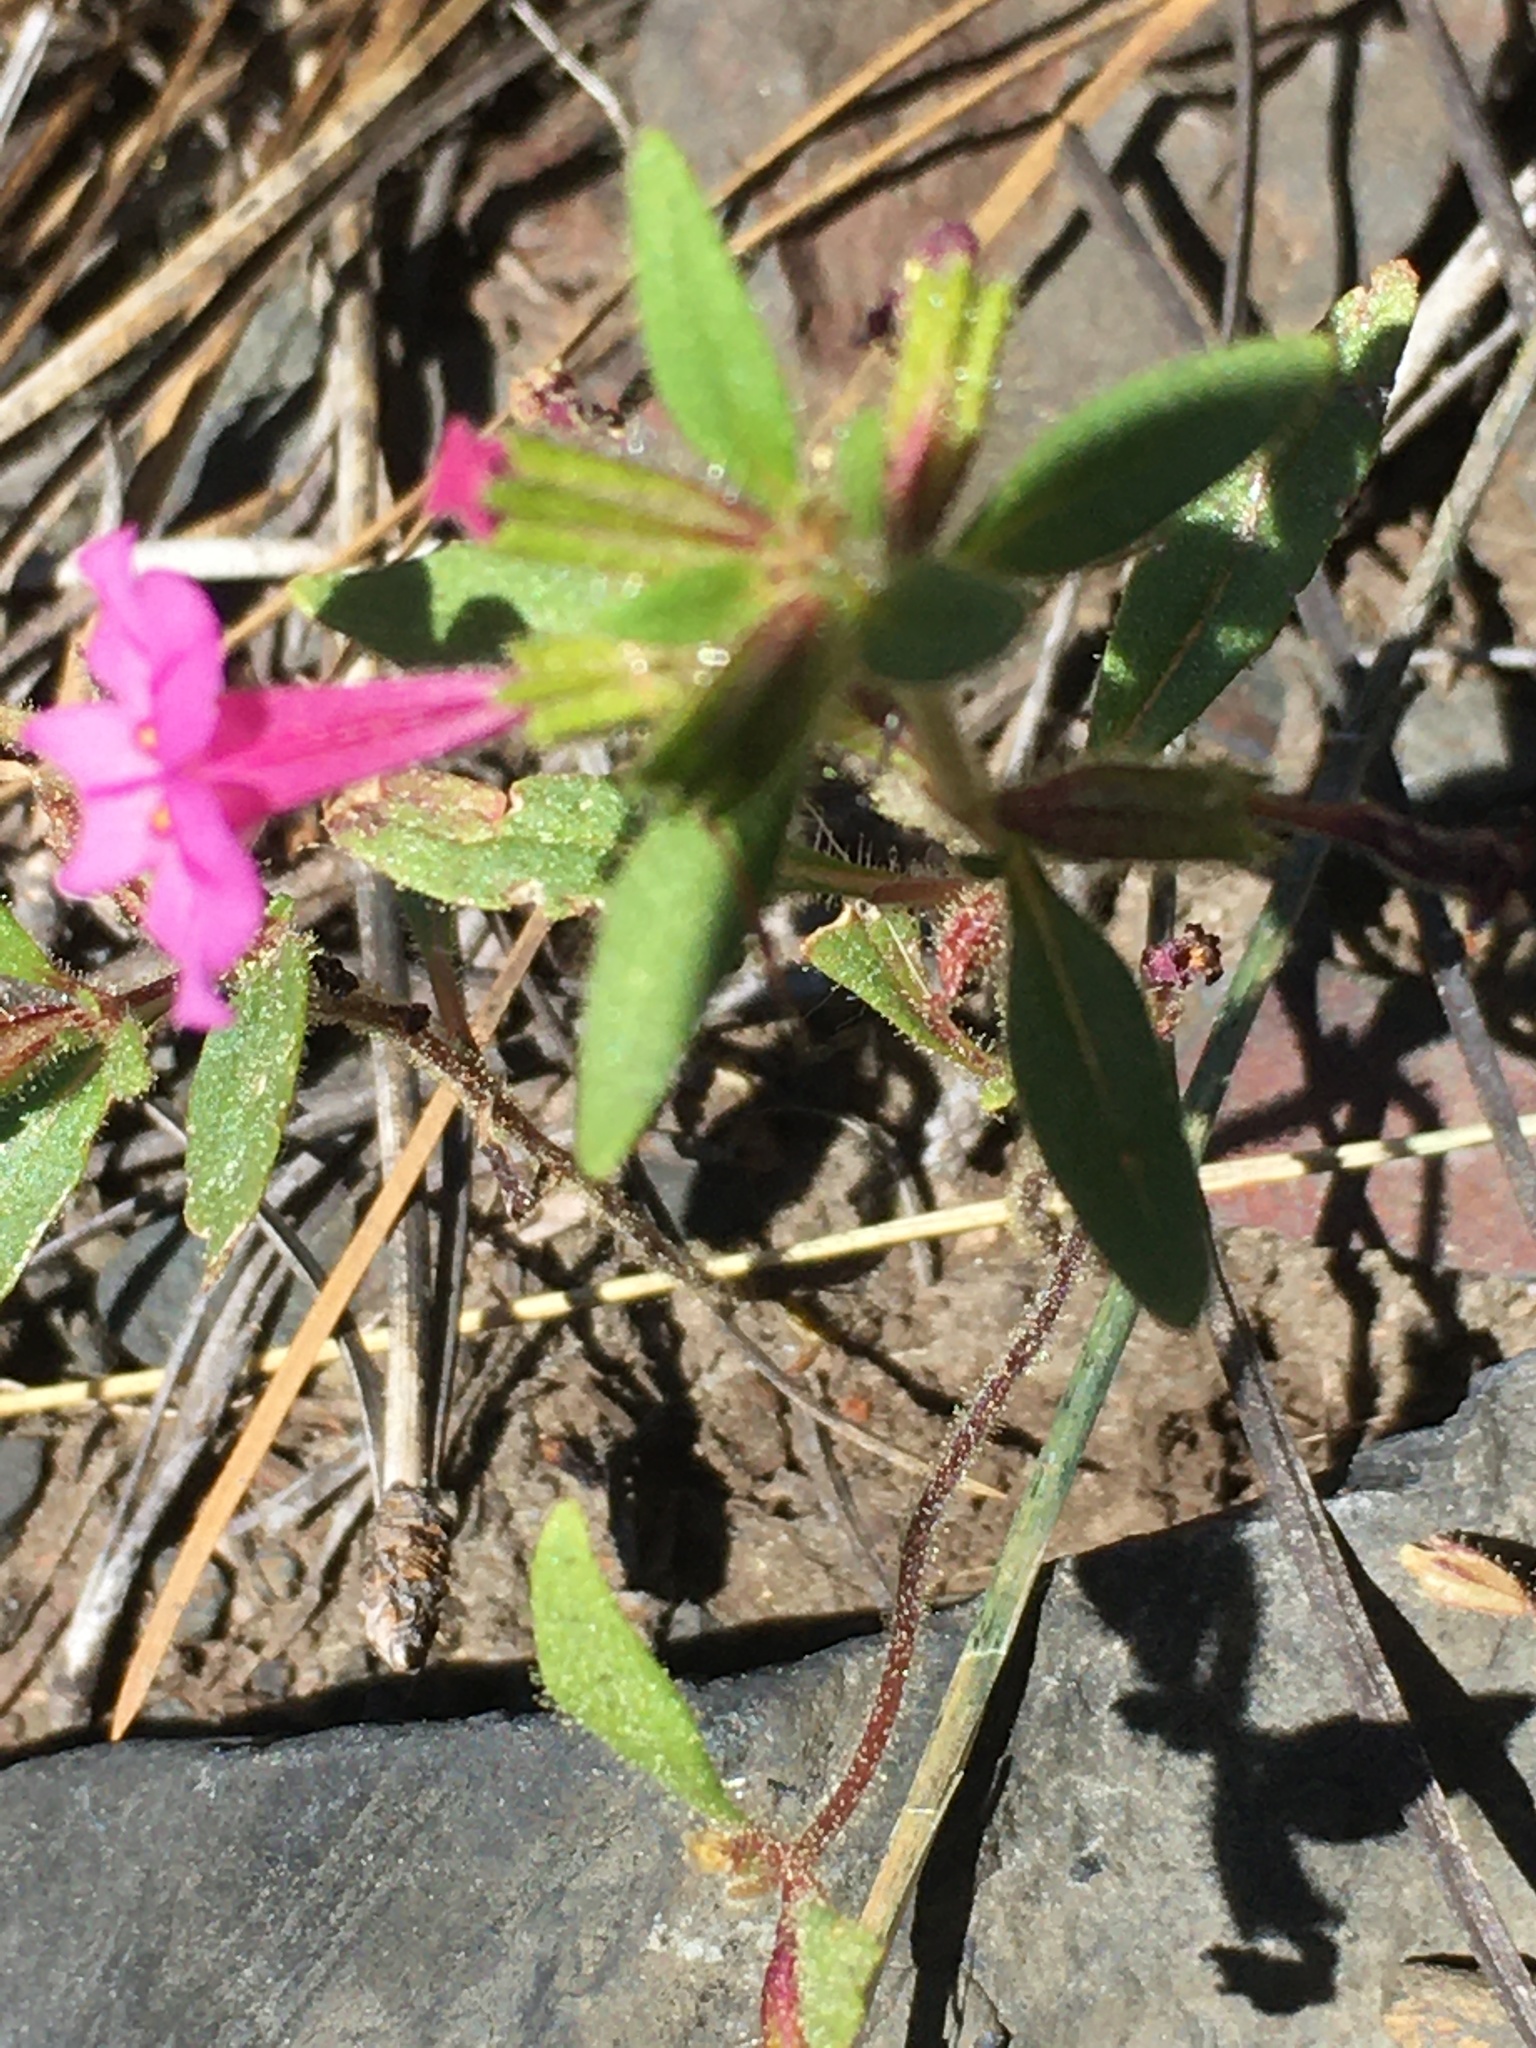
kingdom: Plantae
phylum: Tracheophyta
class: Magnoliopsida
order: Lamiales
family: Phrymaceae
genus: Diplacus
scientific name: Diplacus torreyi
